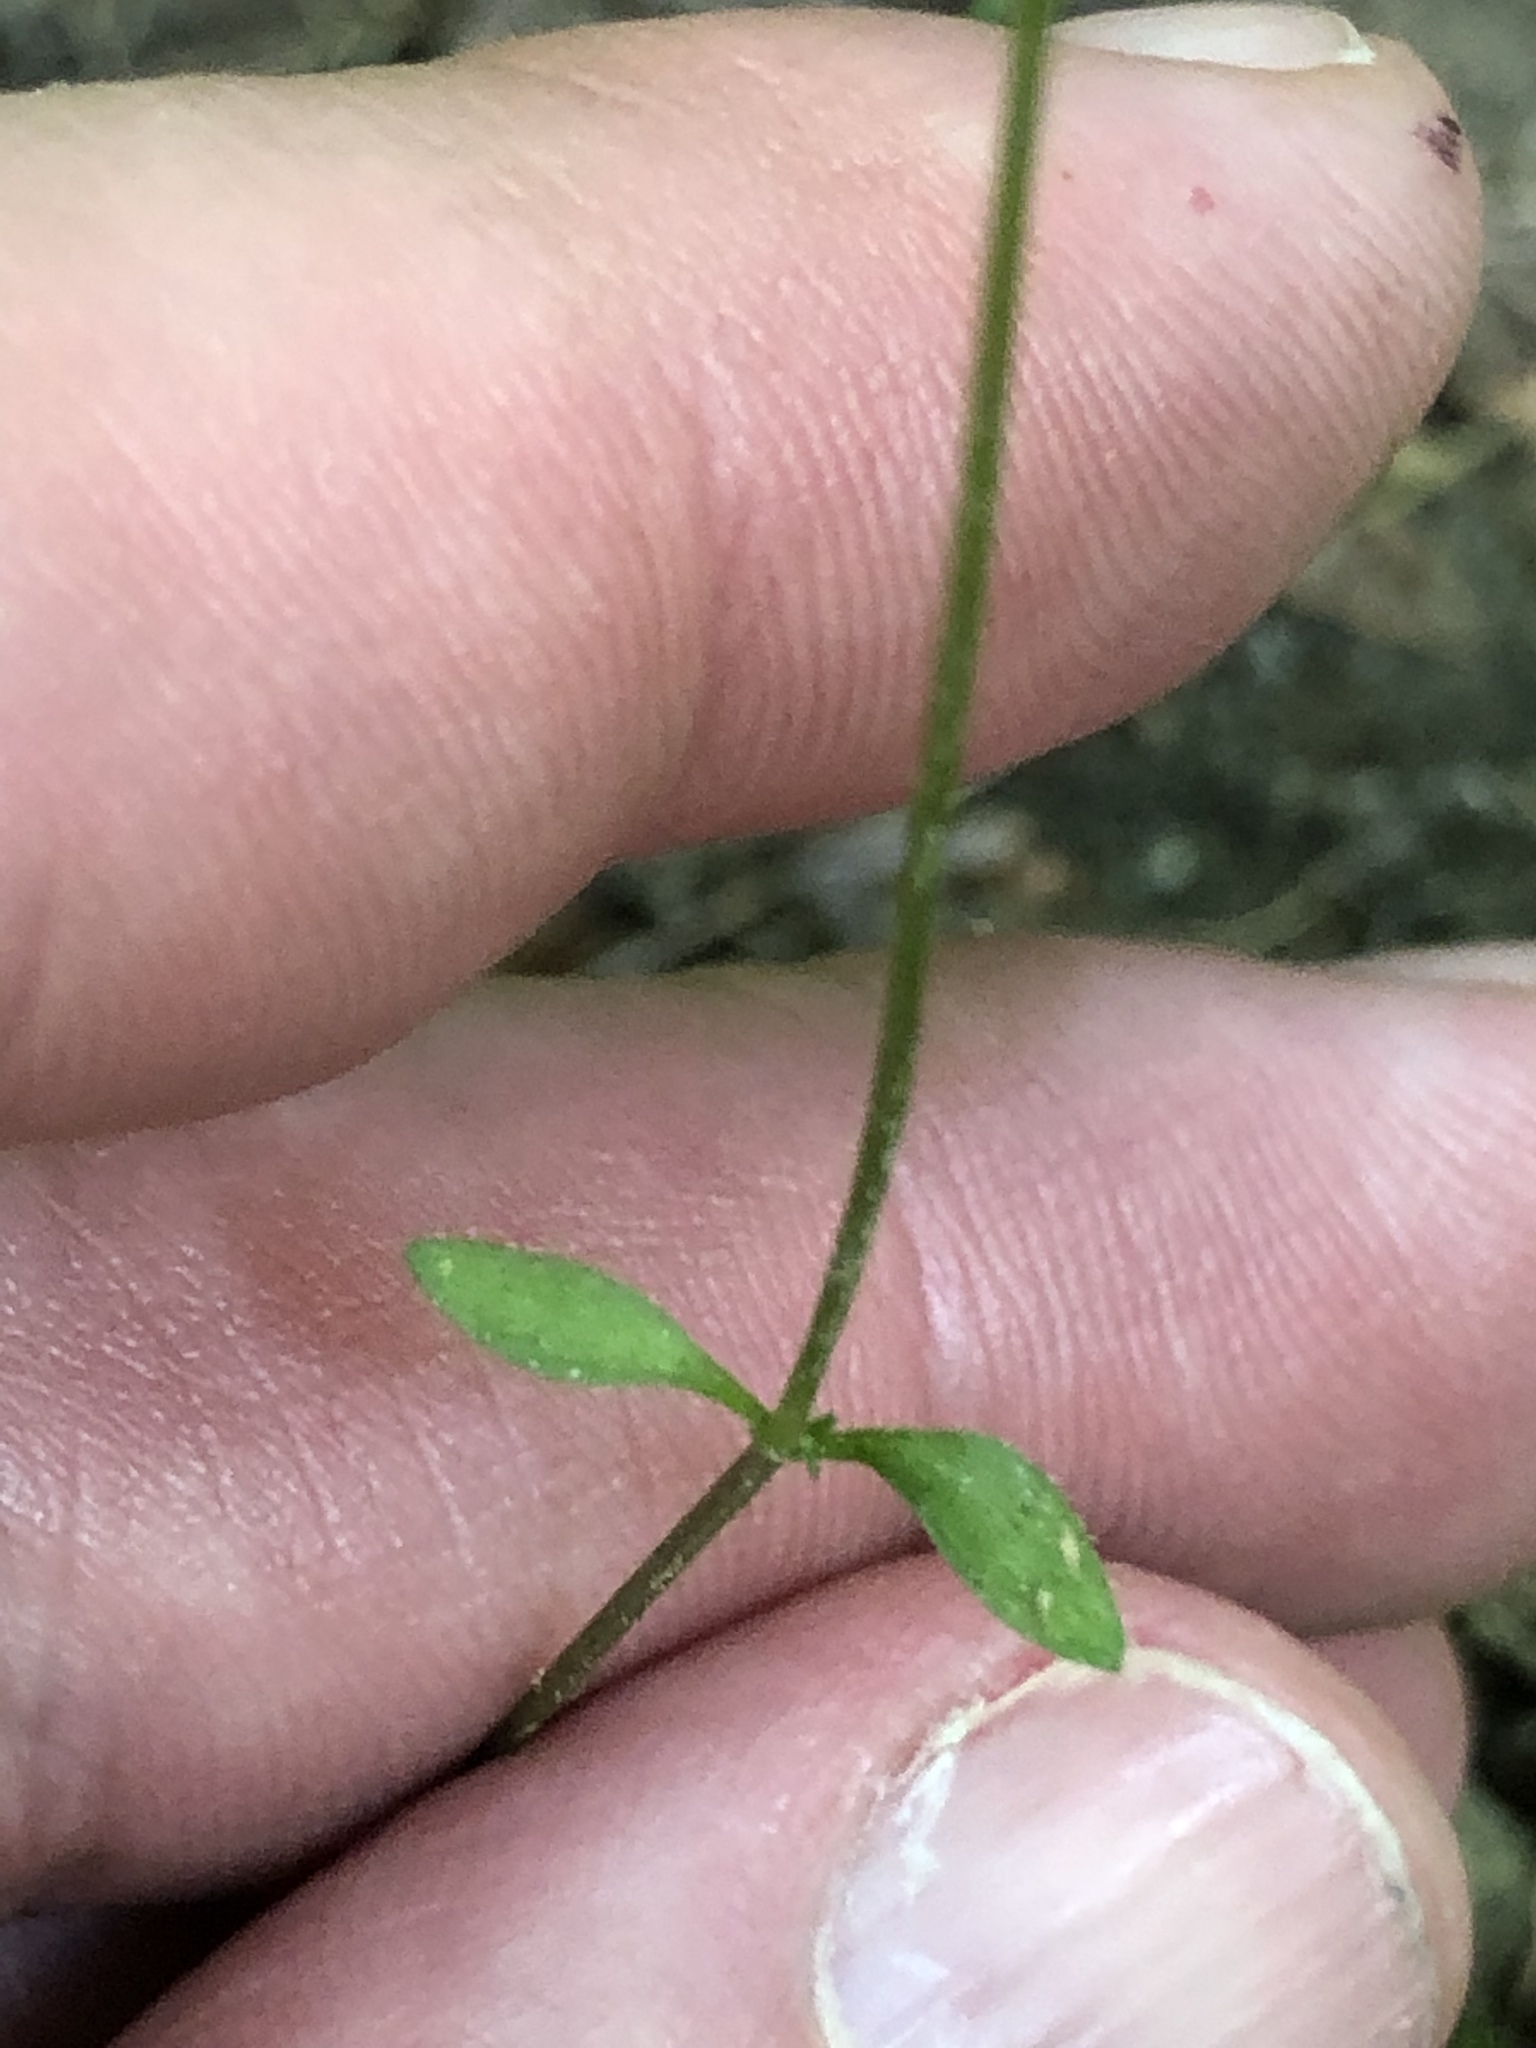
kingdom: Plantae
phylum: Tracheophyta
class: Magnoliopsida
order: Gentianales
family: Rubiaceae
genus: Houstonia
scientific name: Houstonia caerulea
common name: Bluets
